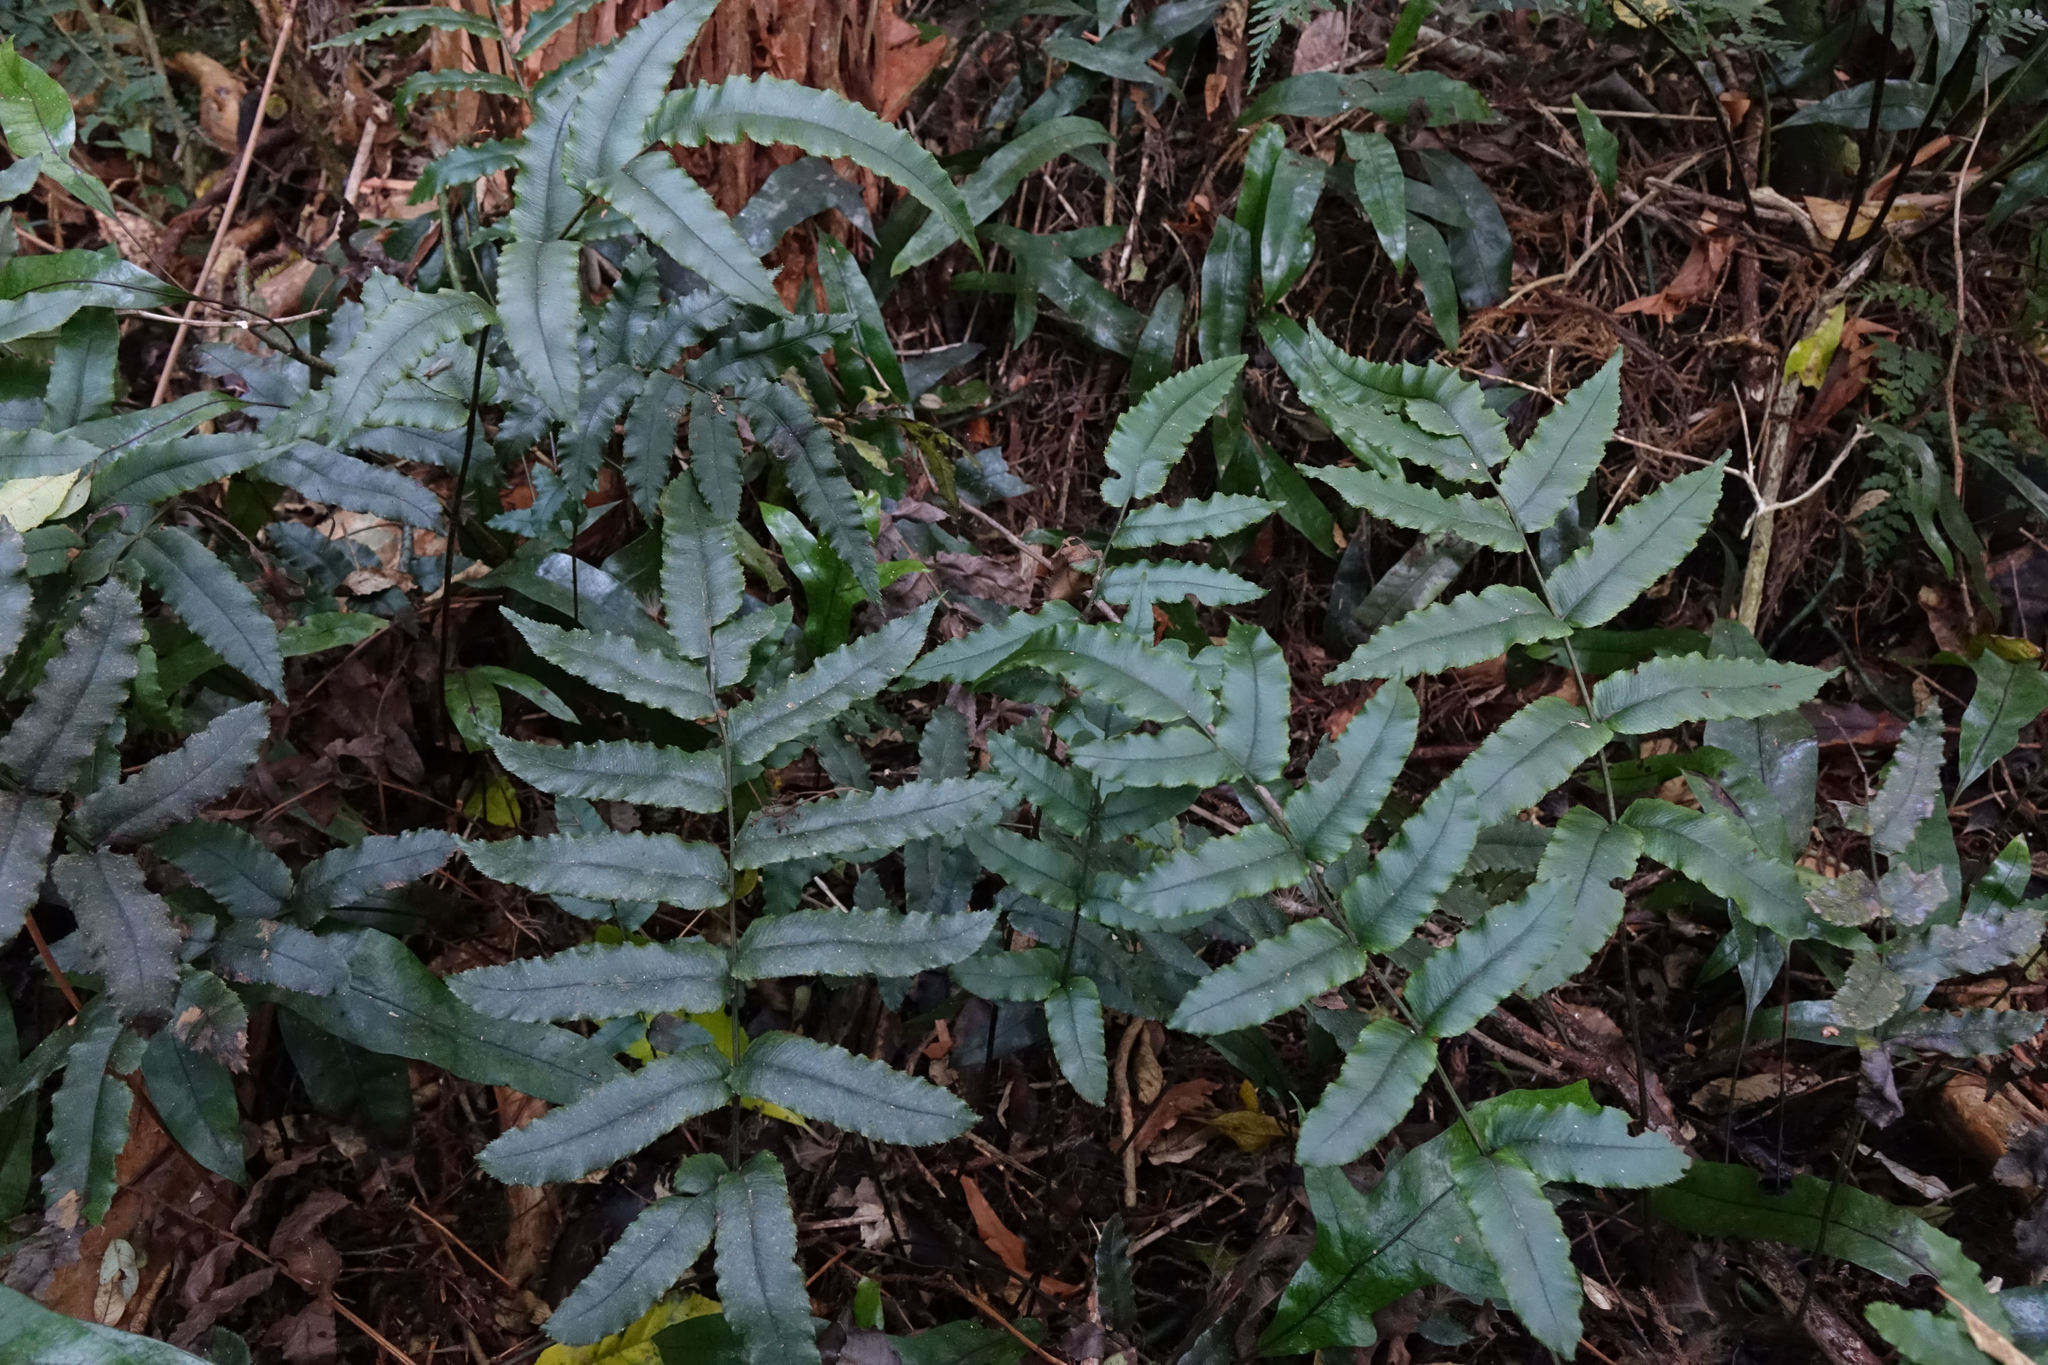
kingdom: Plantae
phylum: Tracheophyta
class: Polypodiopsida
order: Polypodiales
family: Blechnaceae
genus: Parablechnum
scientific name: Parablechnum procerum
